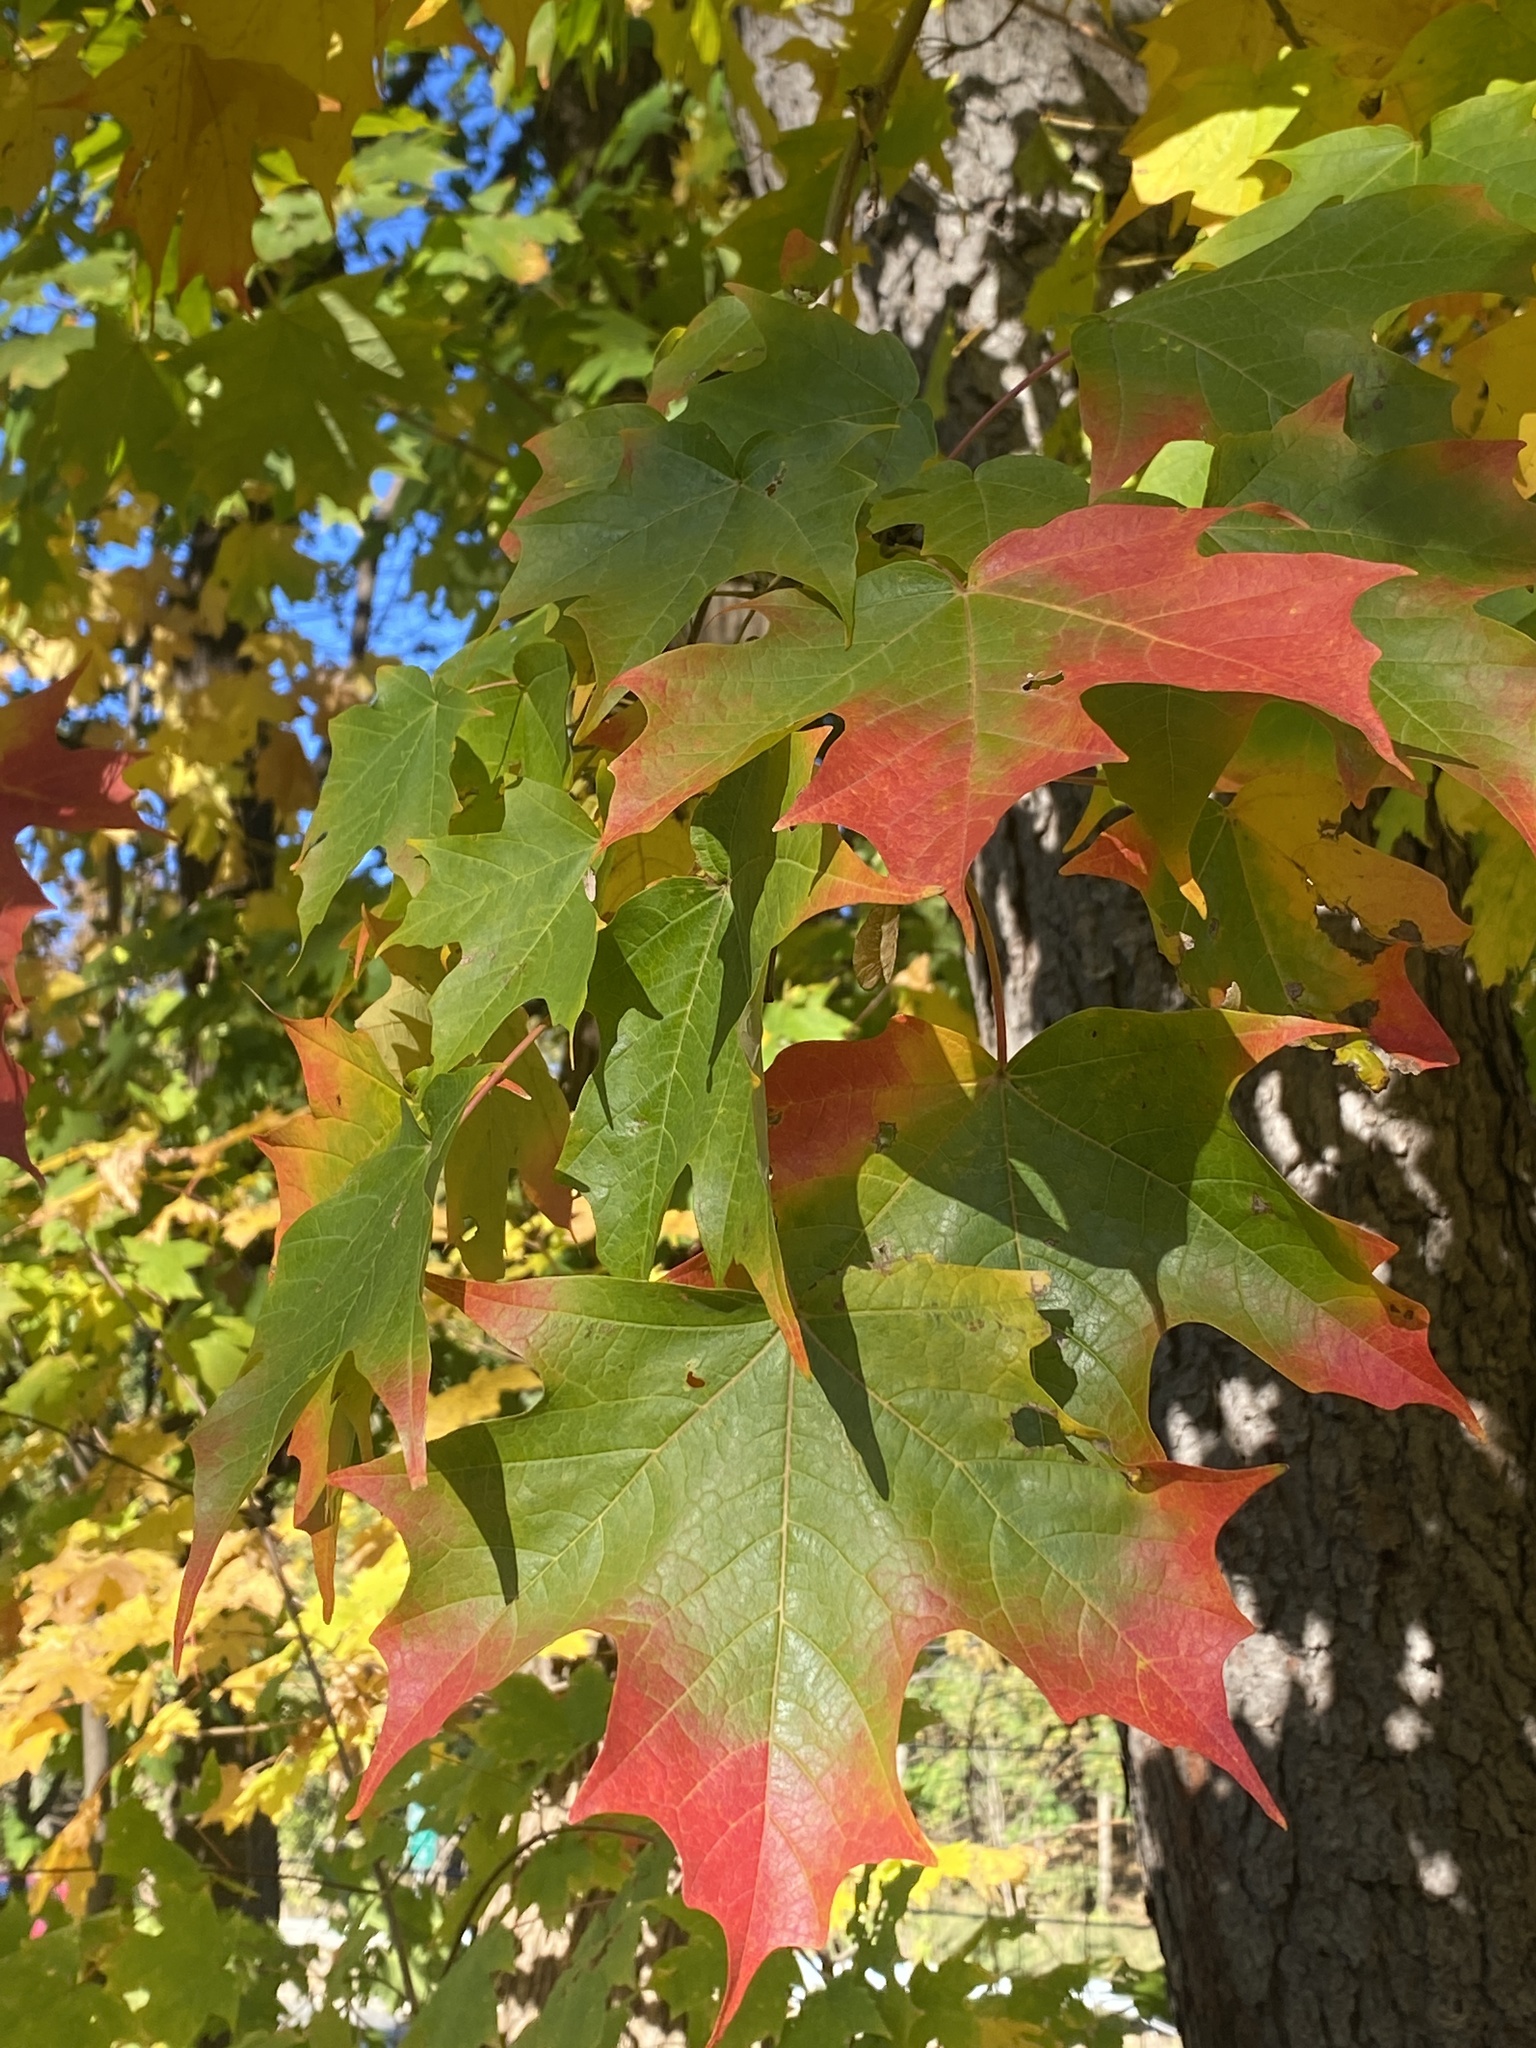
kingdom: Plantae
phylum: Tracheophyta
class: Magnoliopsida
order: Sapindales
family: Sapindaceae
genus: Acer
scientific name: Acer saccharum
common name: Sugar maple
